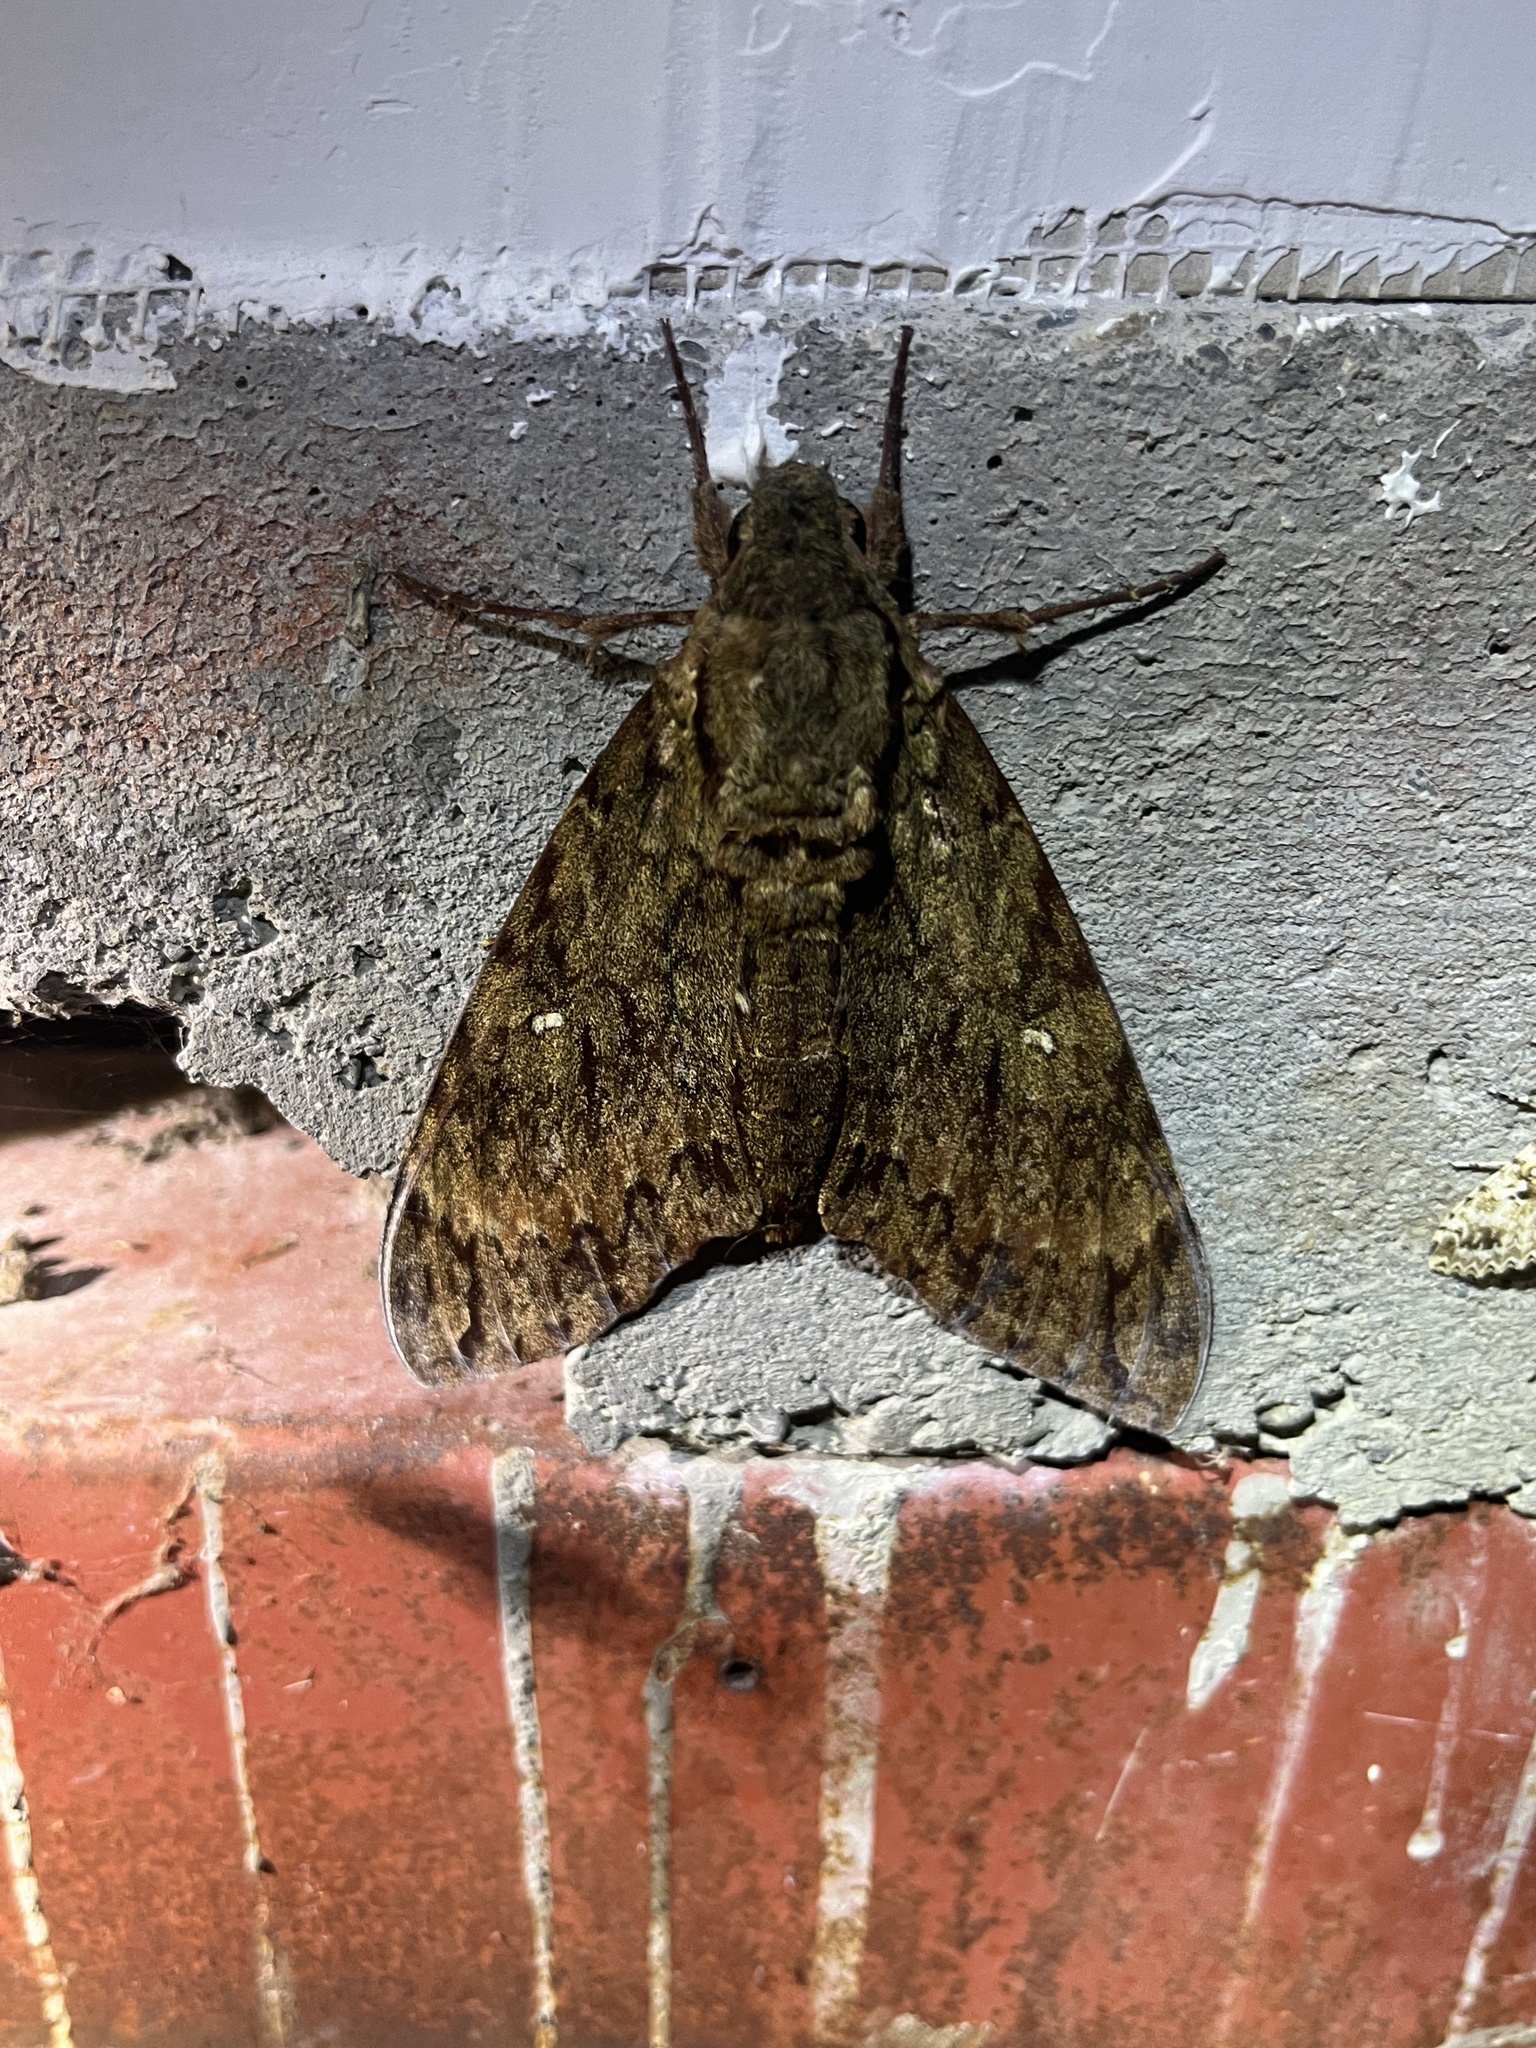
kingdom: Animalia
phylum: Arthropoda
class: Insecta
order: Lepidoptera
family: Sphingidae
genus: Cocytius
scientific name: Cocytius lucifer
